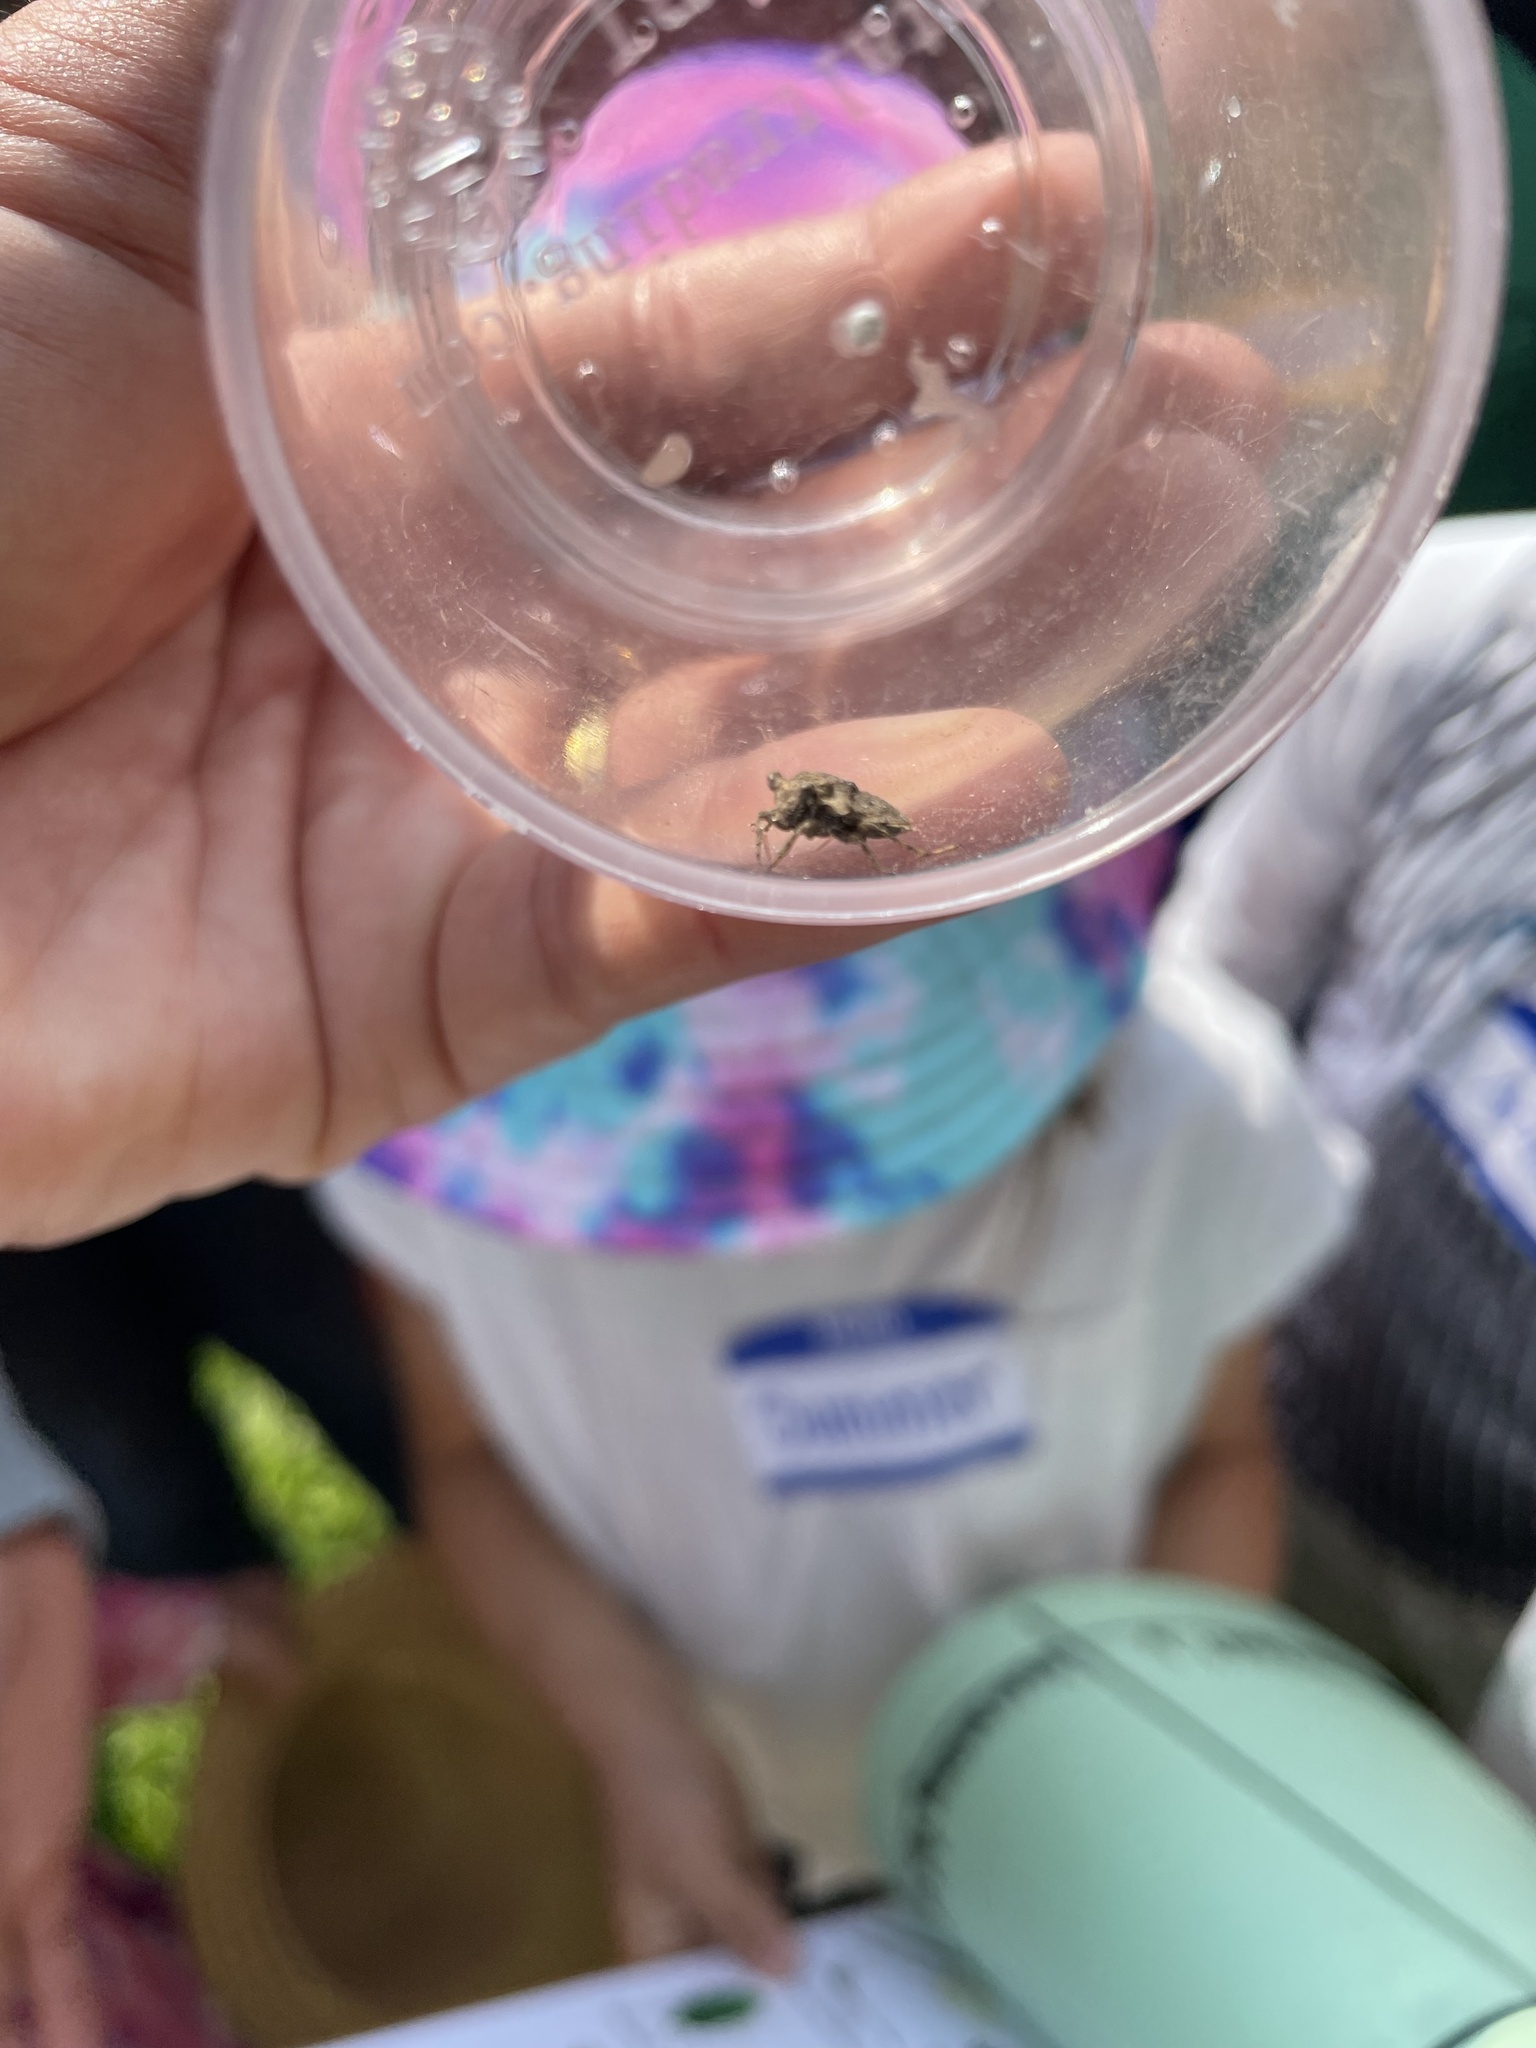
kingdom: Animalia
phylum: Arthropoda
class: Insecta
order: Hemiptera
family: Gelastocoridae
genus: Gelastocoris
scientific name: Gelastocoris oculatus
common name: Toad bug
